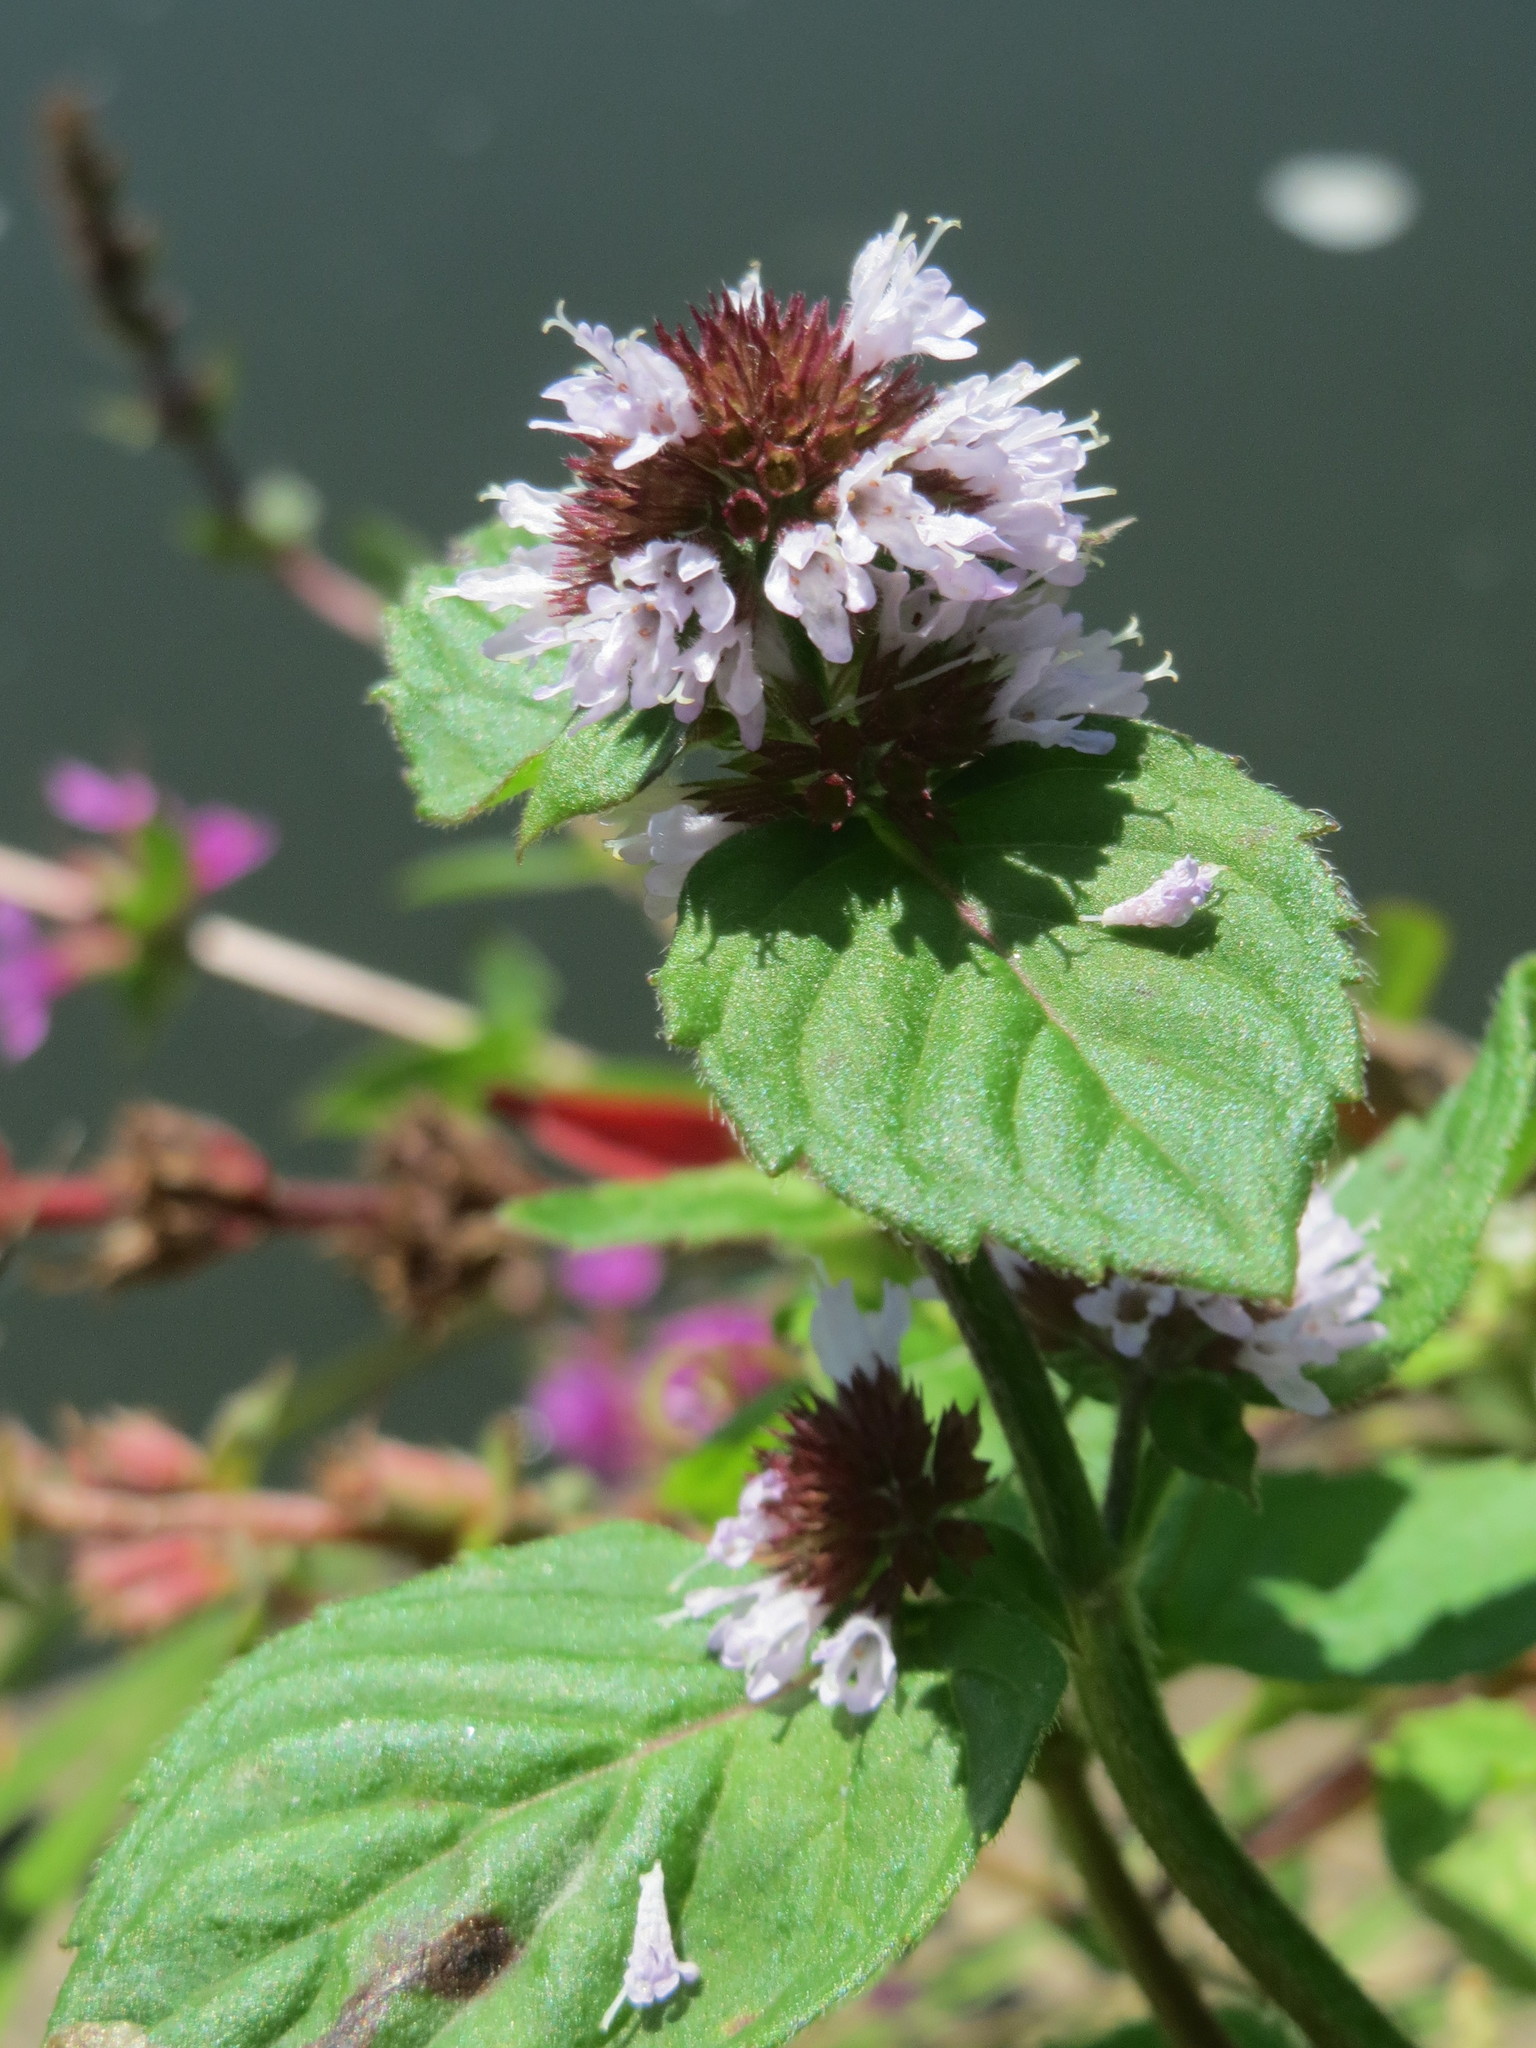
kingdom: Plantae
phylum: Tracheophyta
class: Magnoliopsida
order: Lamiales
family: Lamiaceae
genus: Mentha
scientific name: Mentha aquatica
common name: Water mint
